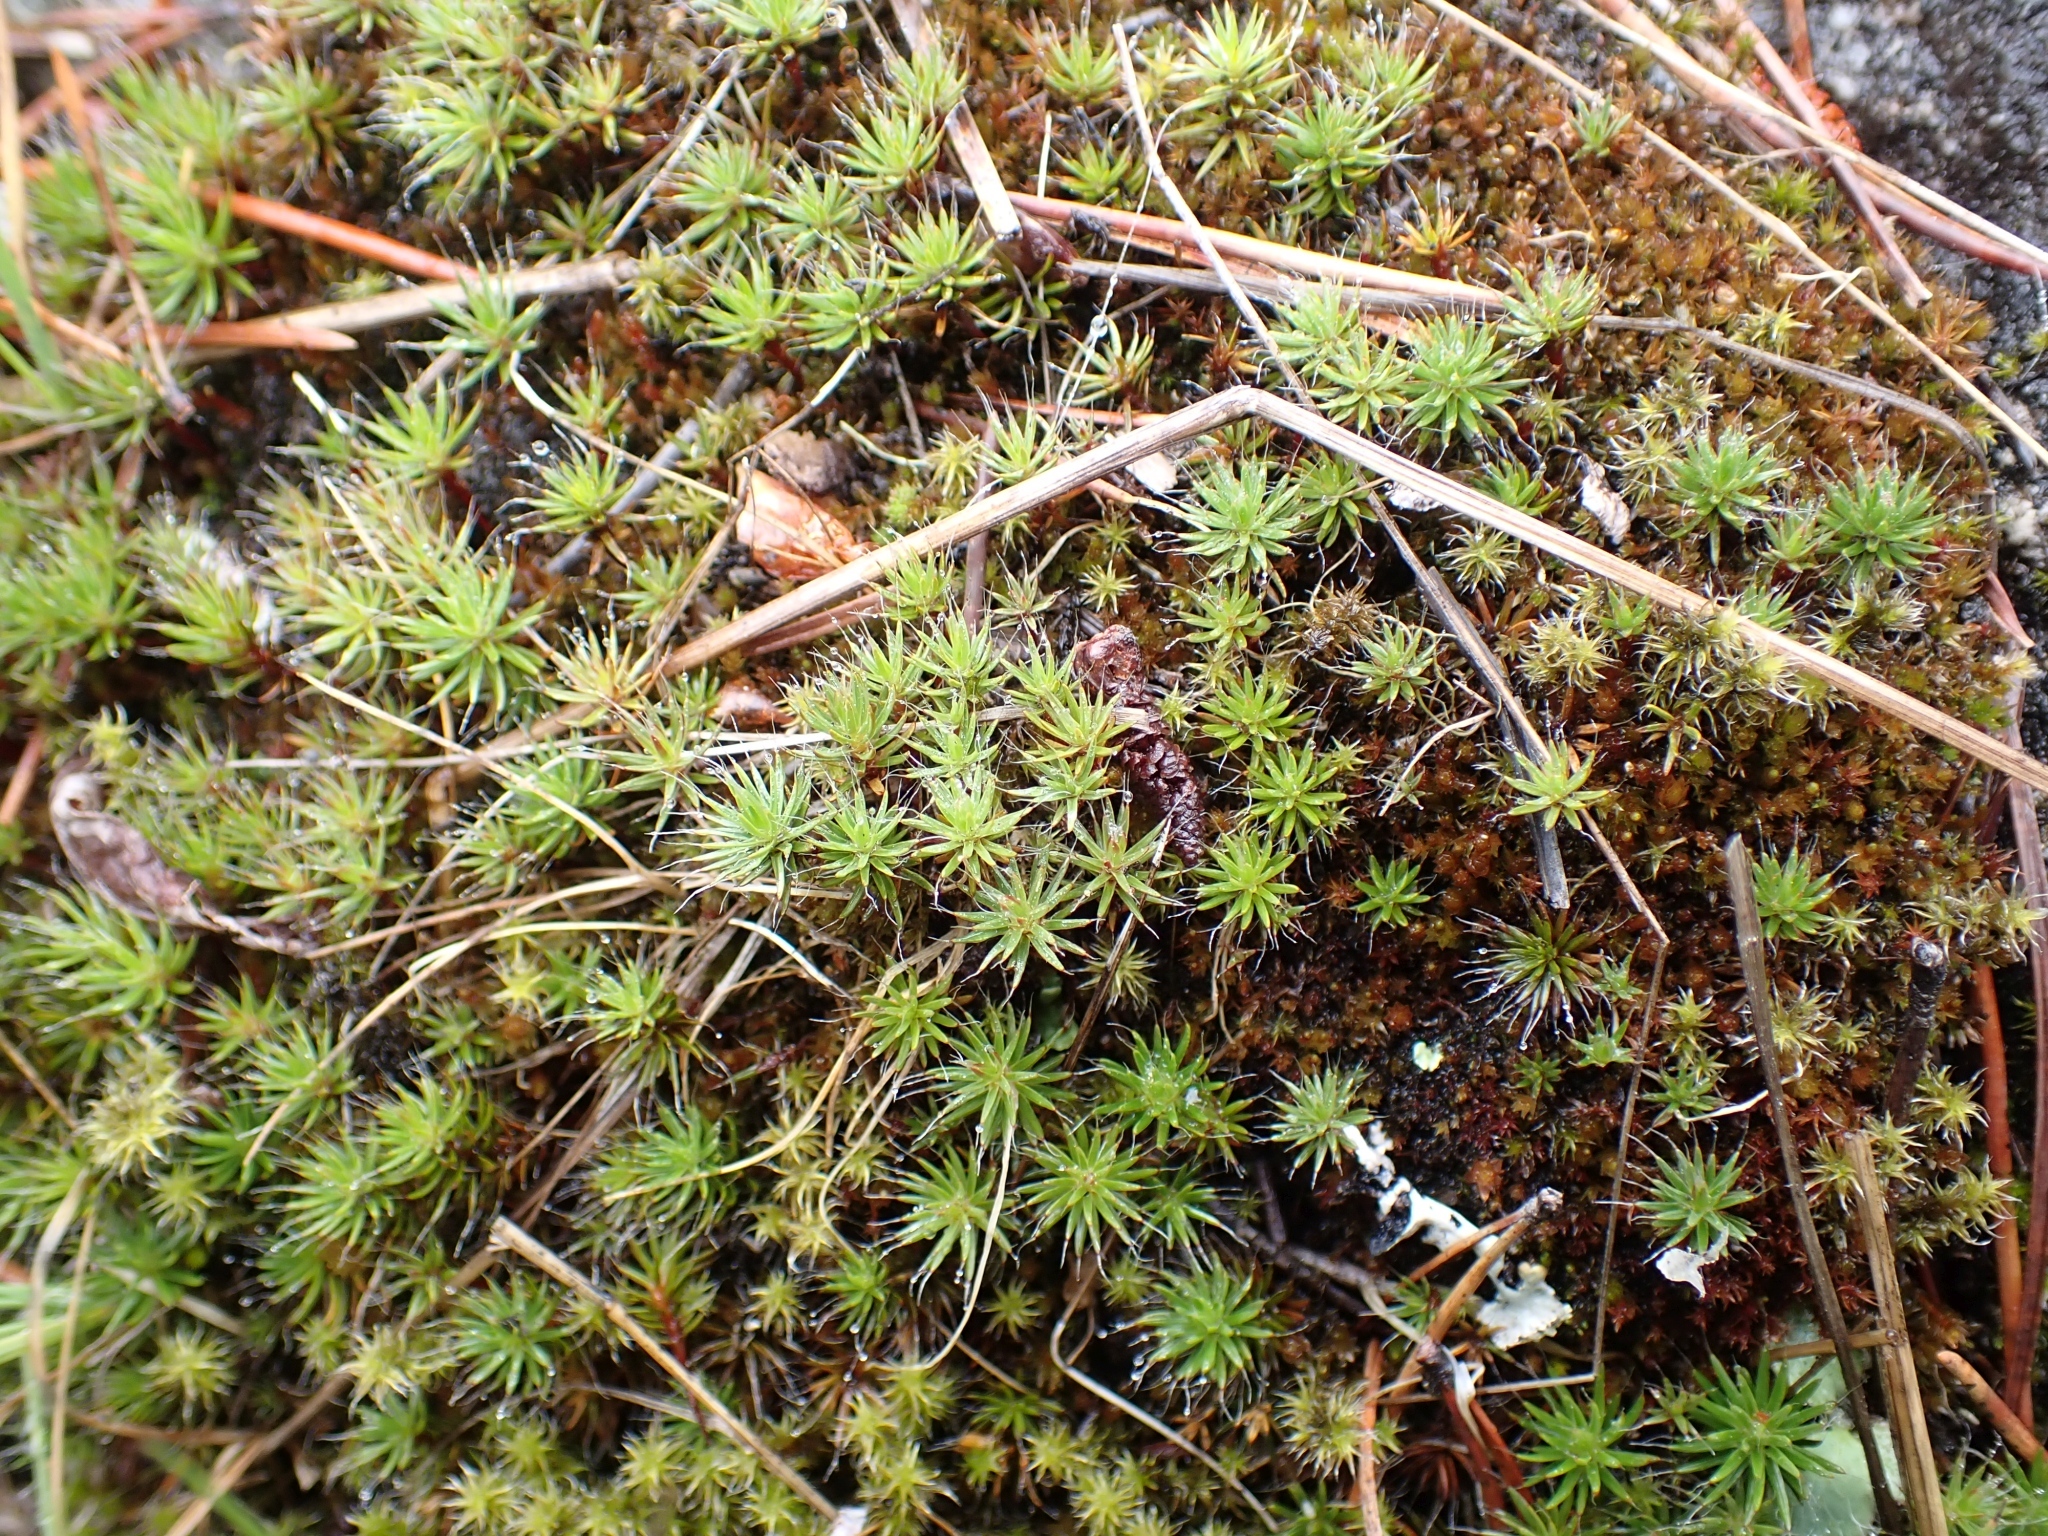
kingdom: Plantae
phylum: Bryophyta
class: Polytrichopsida
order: Polytrichales
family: Polytrichaceae
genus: Polytrichum
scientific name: Polytrichum piliferum
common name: Bristly haircap
